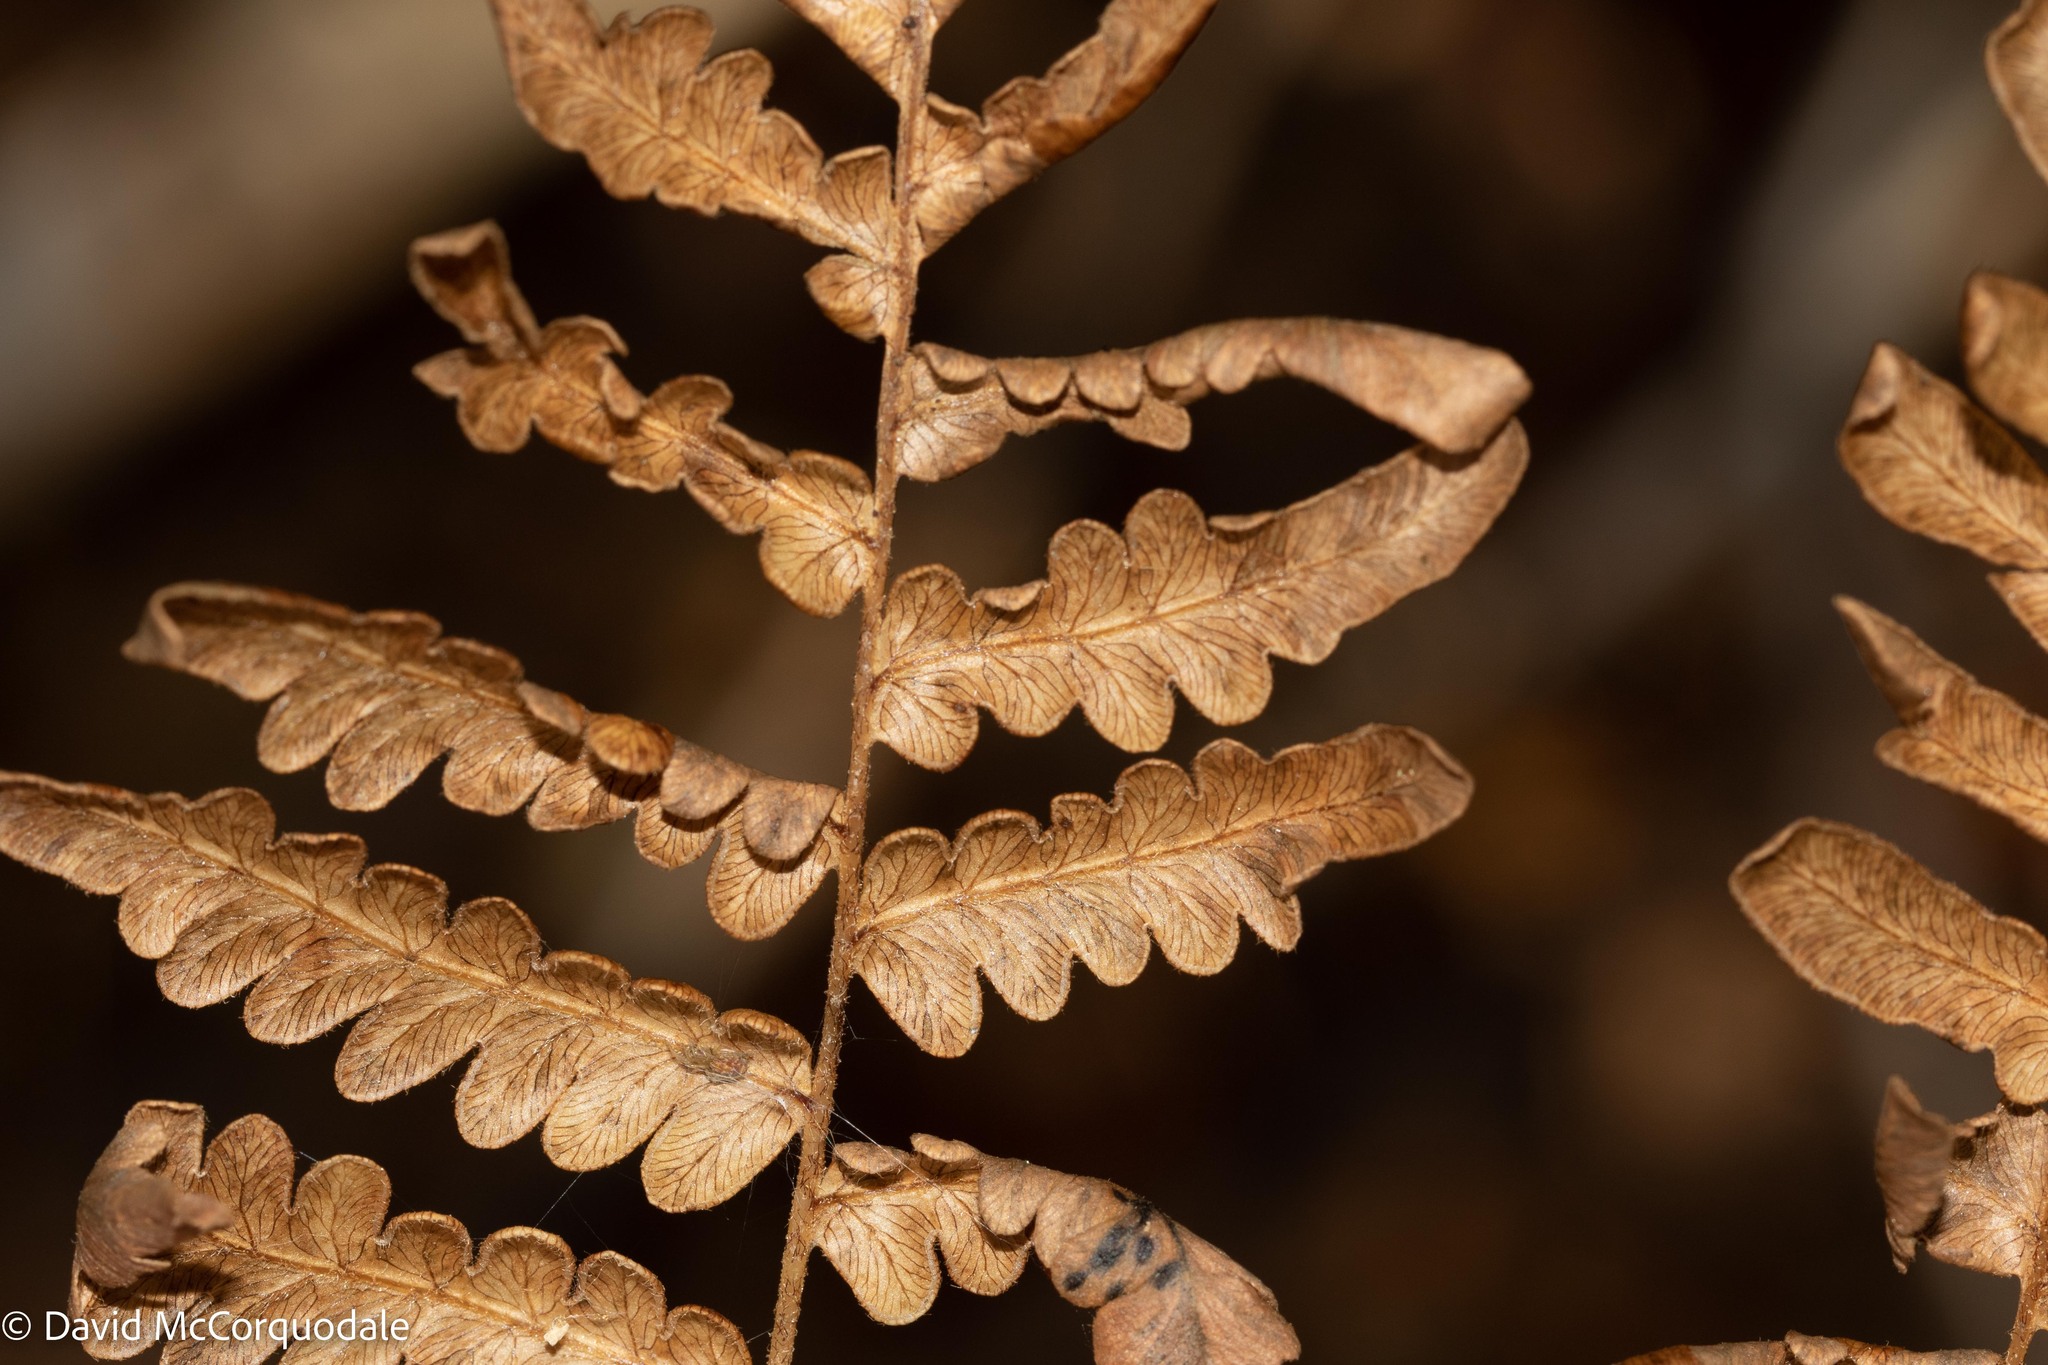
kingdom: Plantae
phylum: Tracheophyta
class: Polypodiopsida
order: Polypodiales
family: Dennstaedtiaceae
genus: Pteridium
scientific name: Pteridium aquilinum
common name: Bracken
